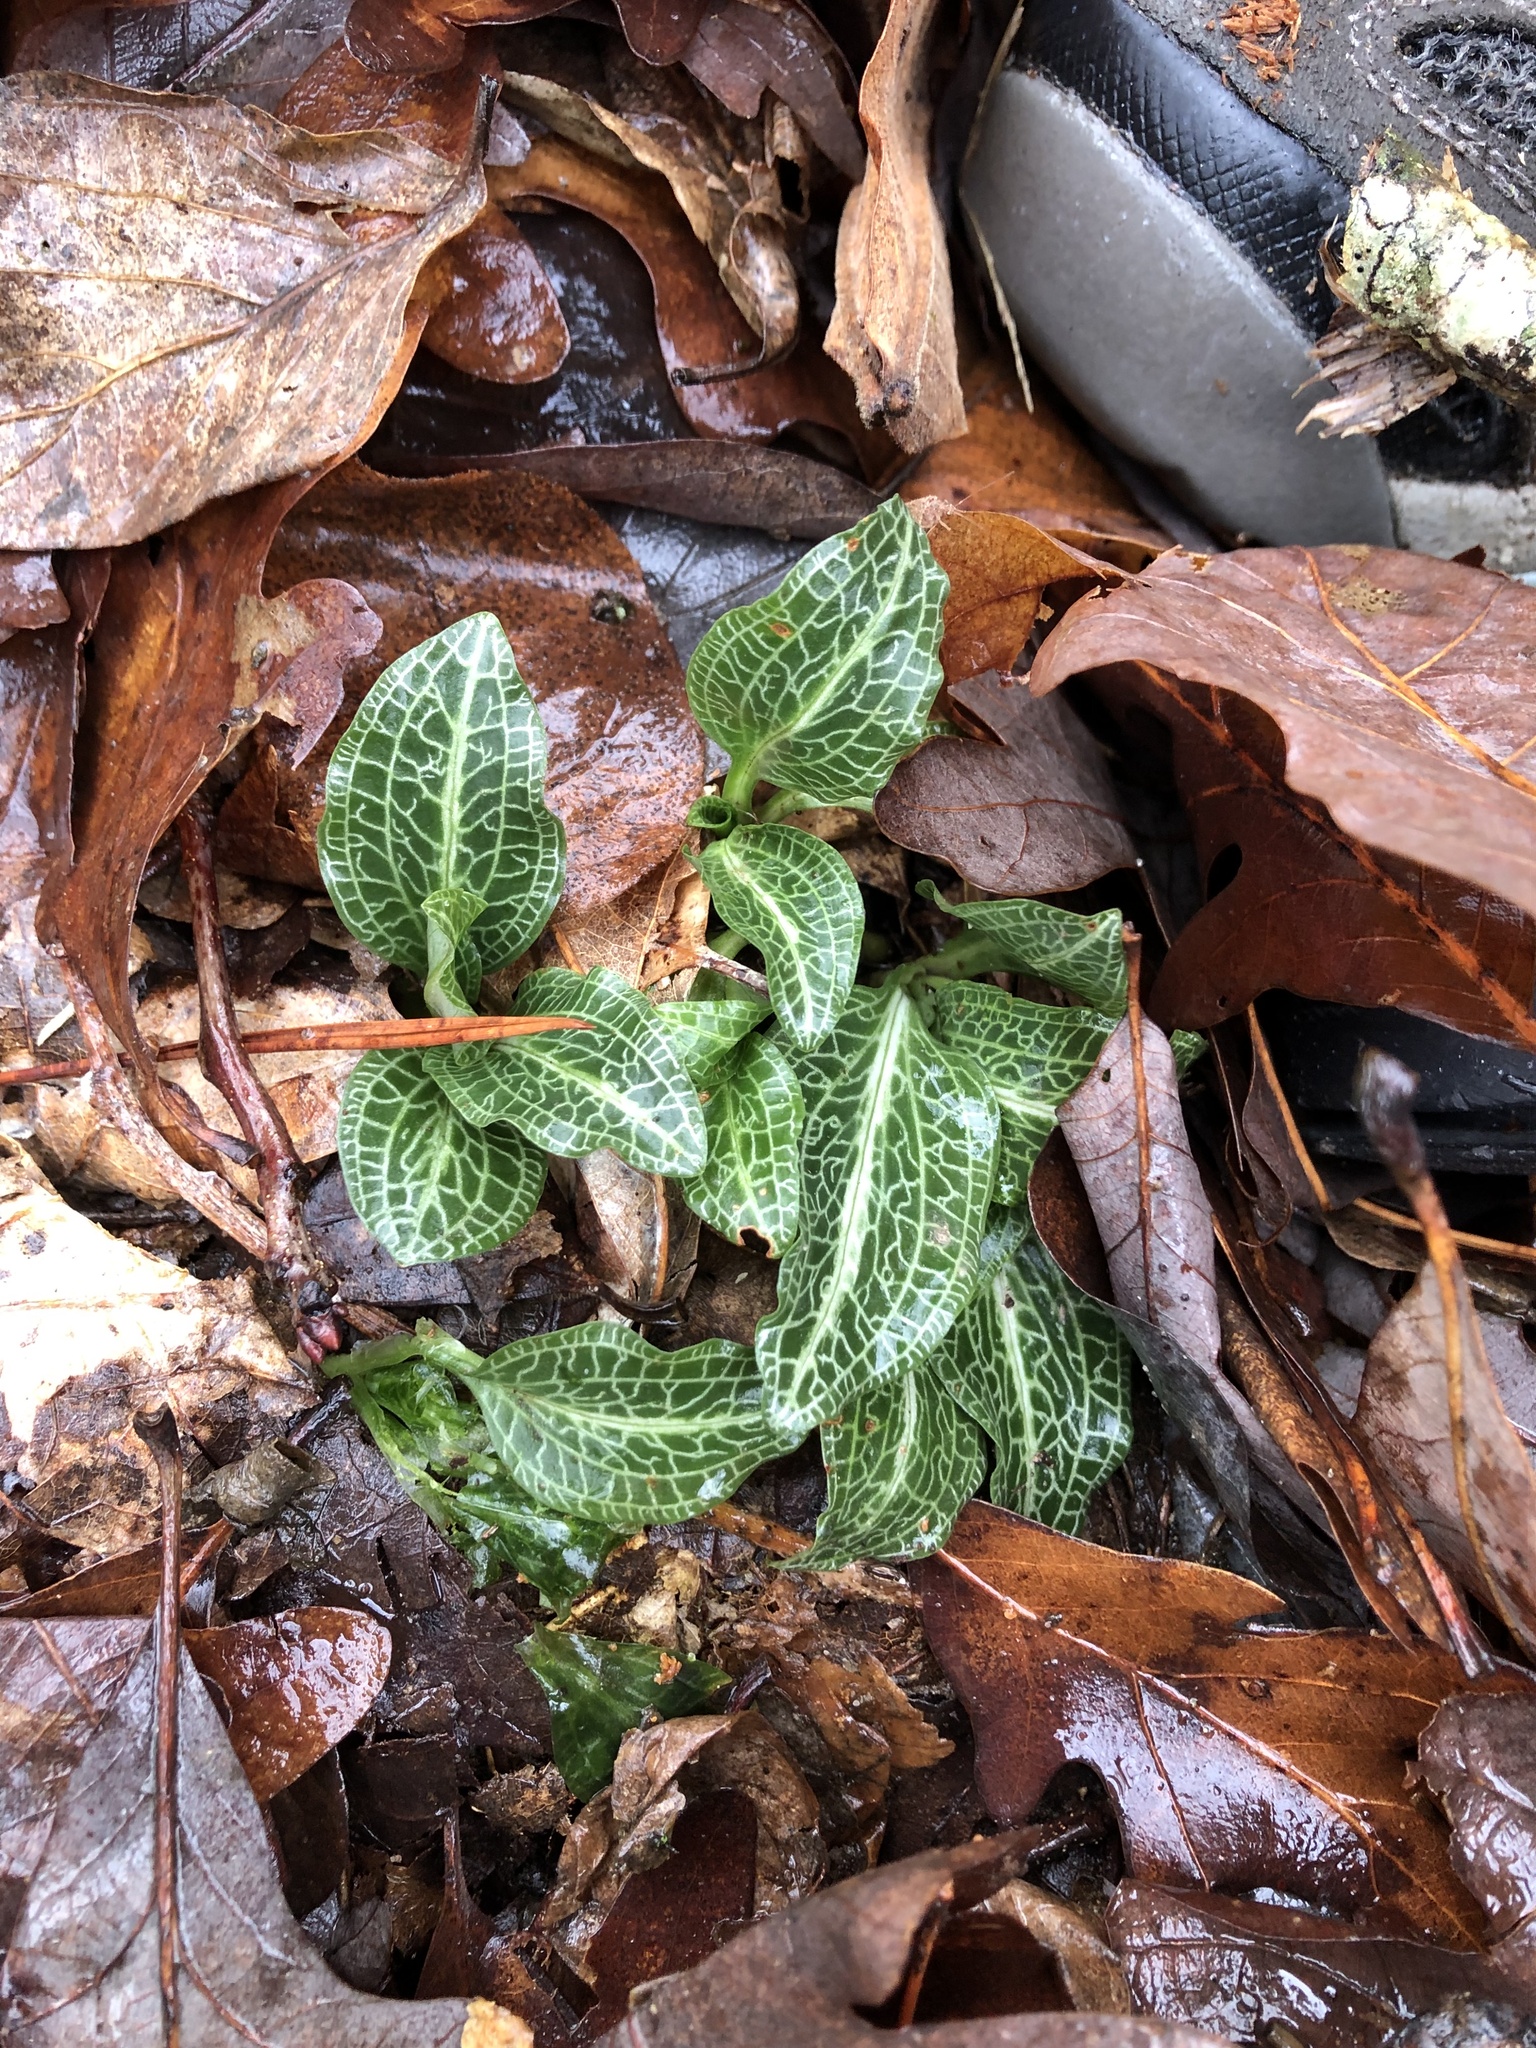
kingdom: Plantae
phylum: Tracheophyta
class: Liliopsida
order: Asparagales
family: Orchidaceae
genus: Goodyera
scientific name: Goodyera pubescens
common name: Downy rattlesnake-plantain
